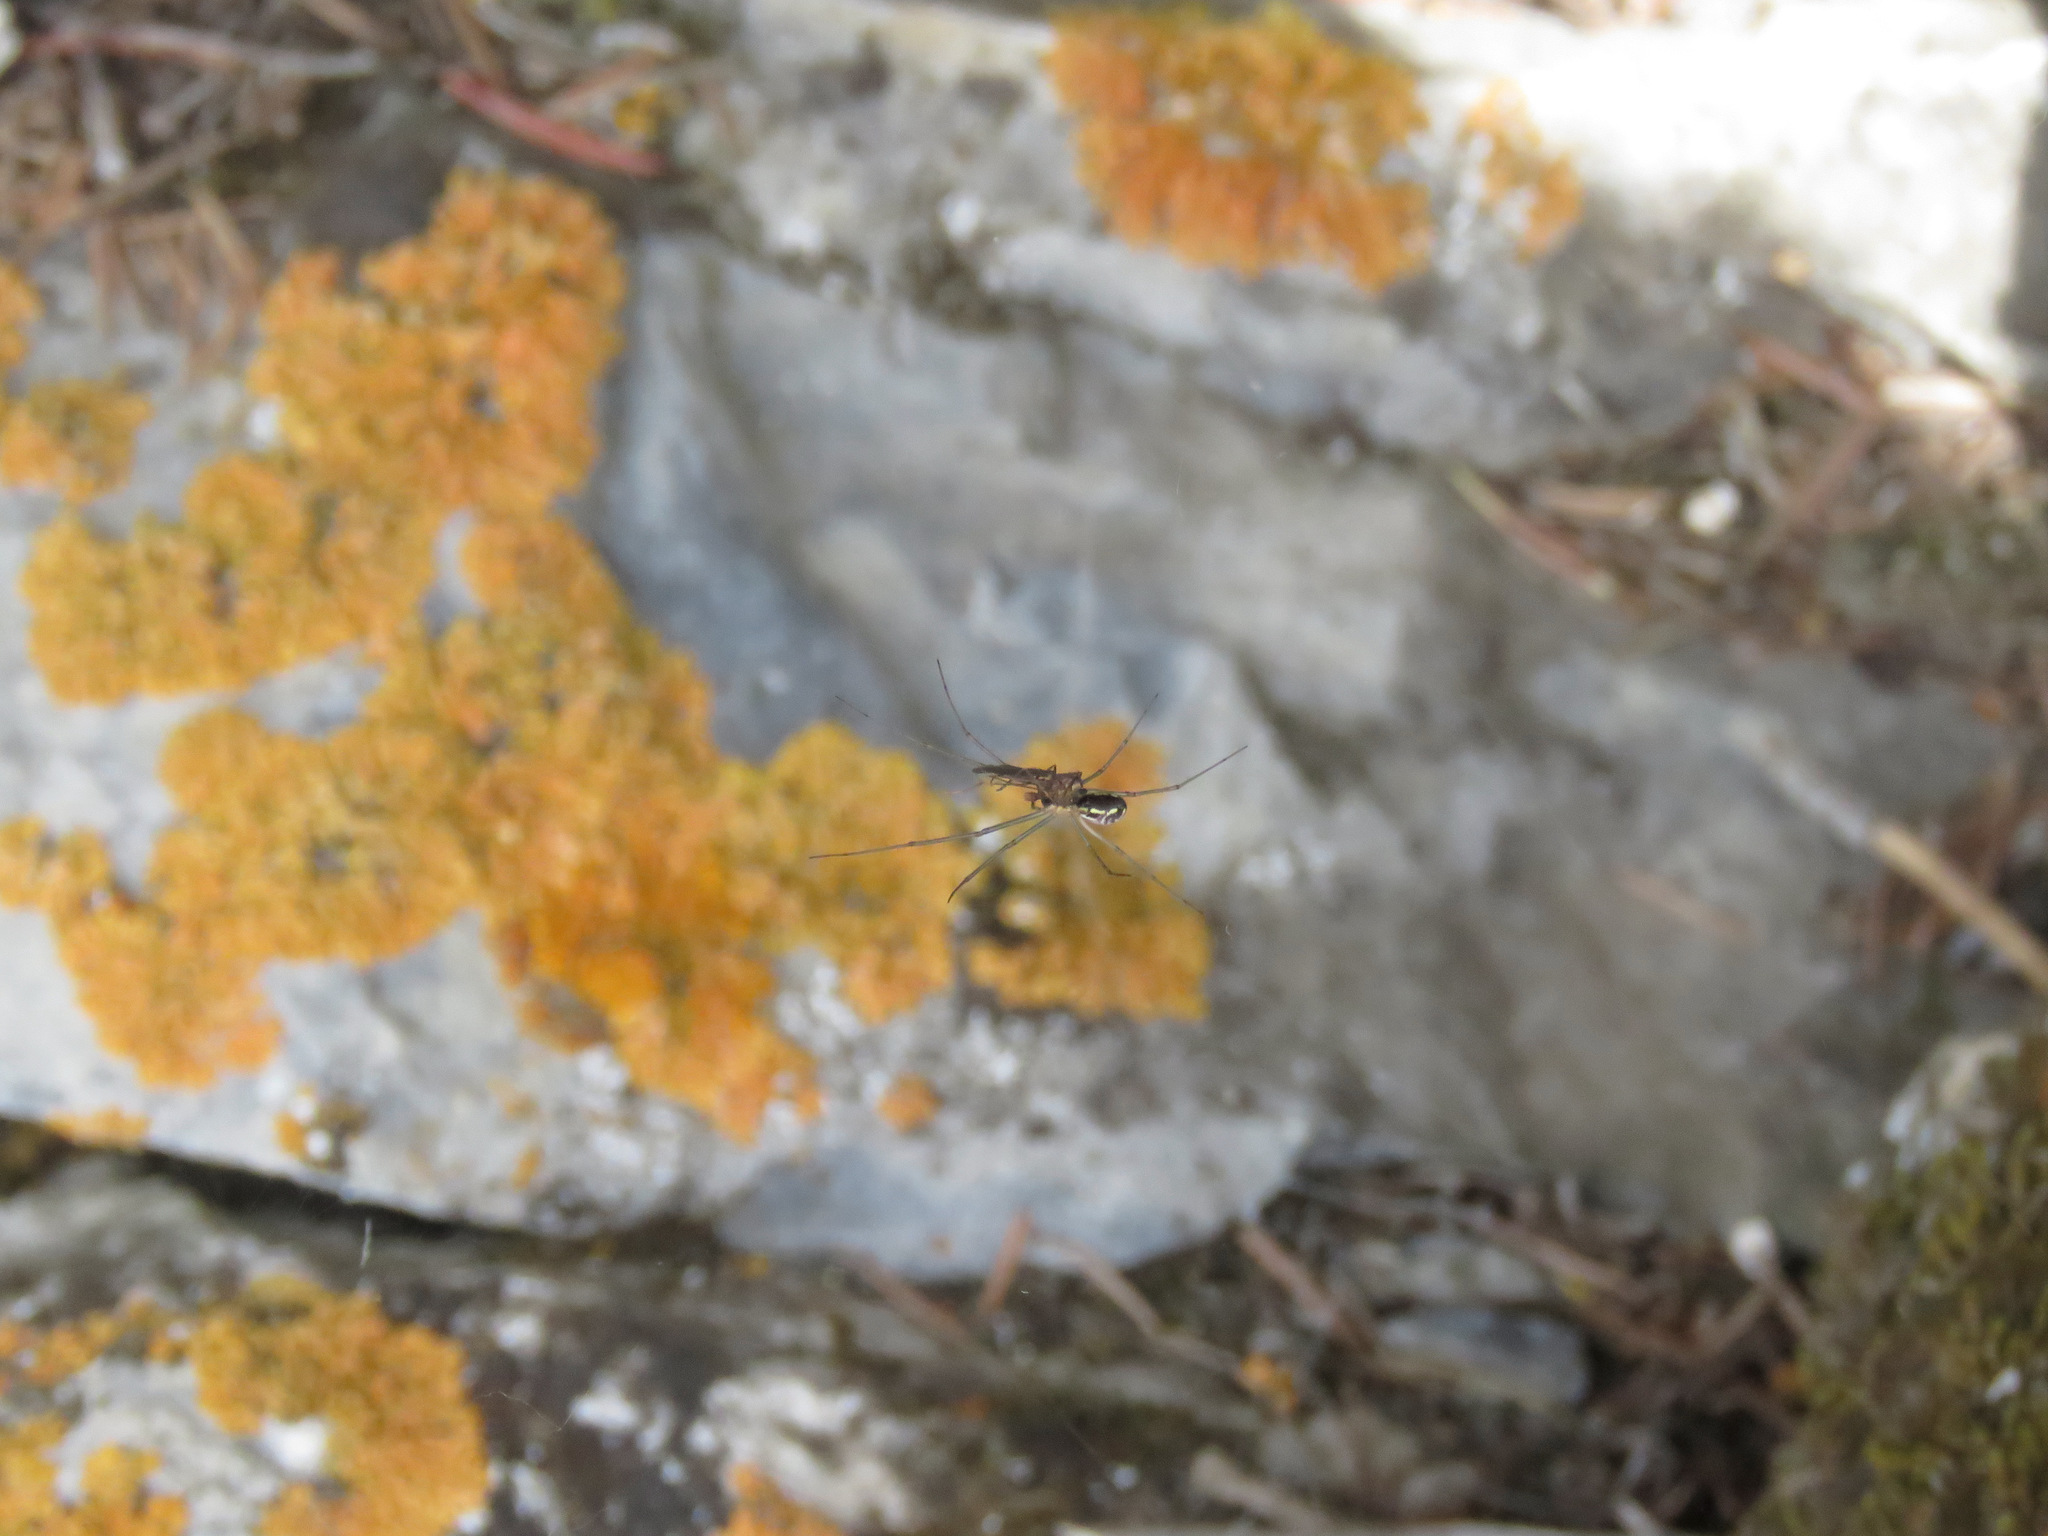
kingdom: Animalia
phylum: Arthropoda
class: Arachnida
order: Araneae
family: Linyphiidae
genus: Neriene
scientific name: Neriene radiata
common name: Filmy dome spider
